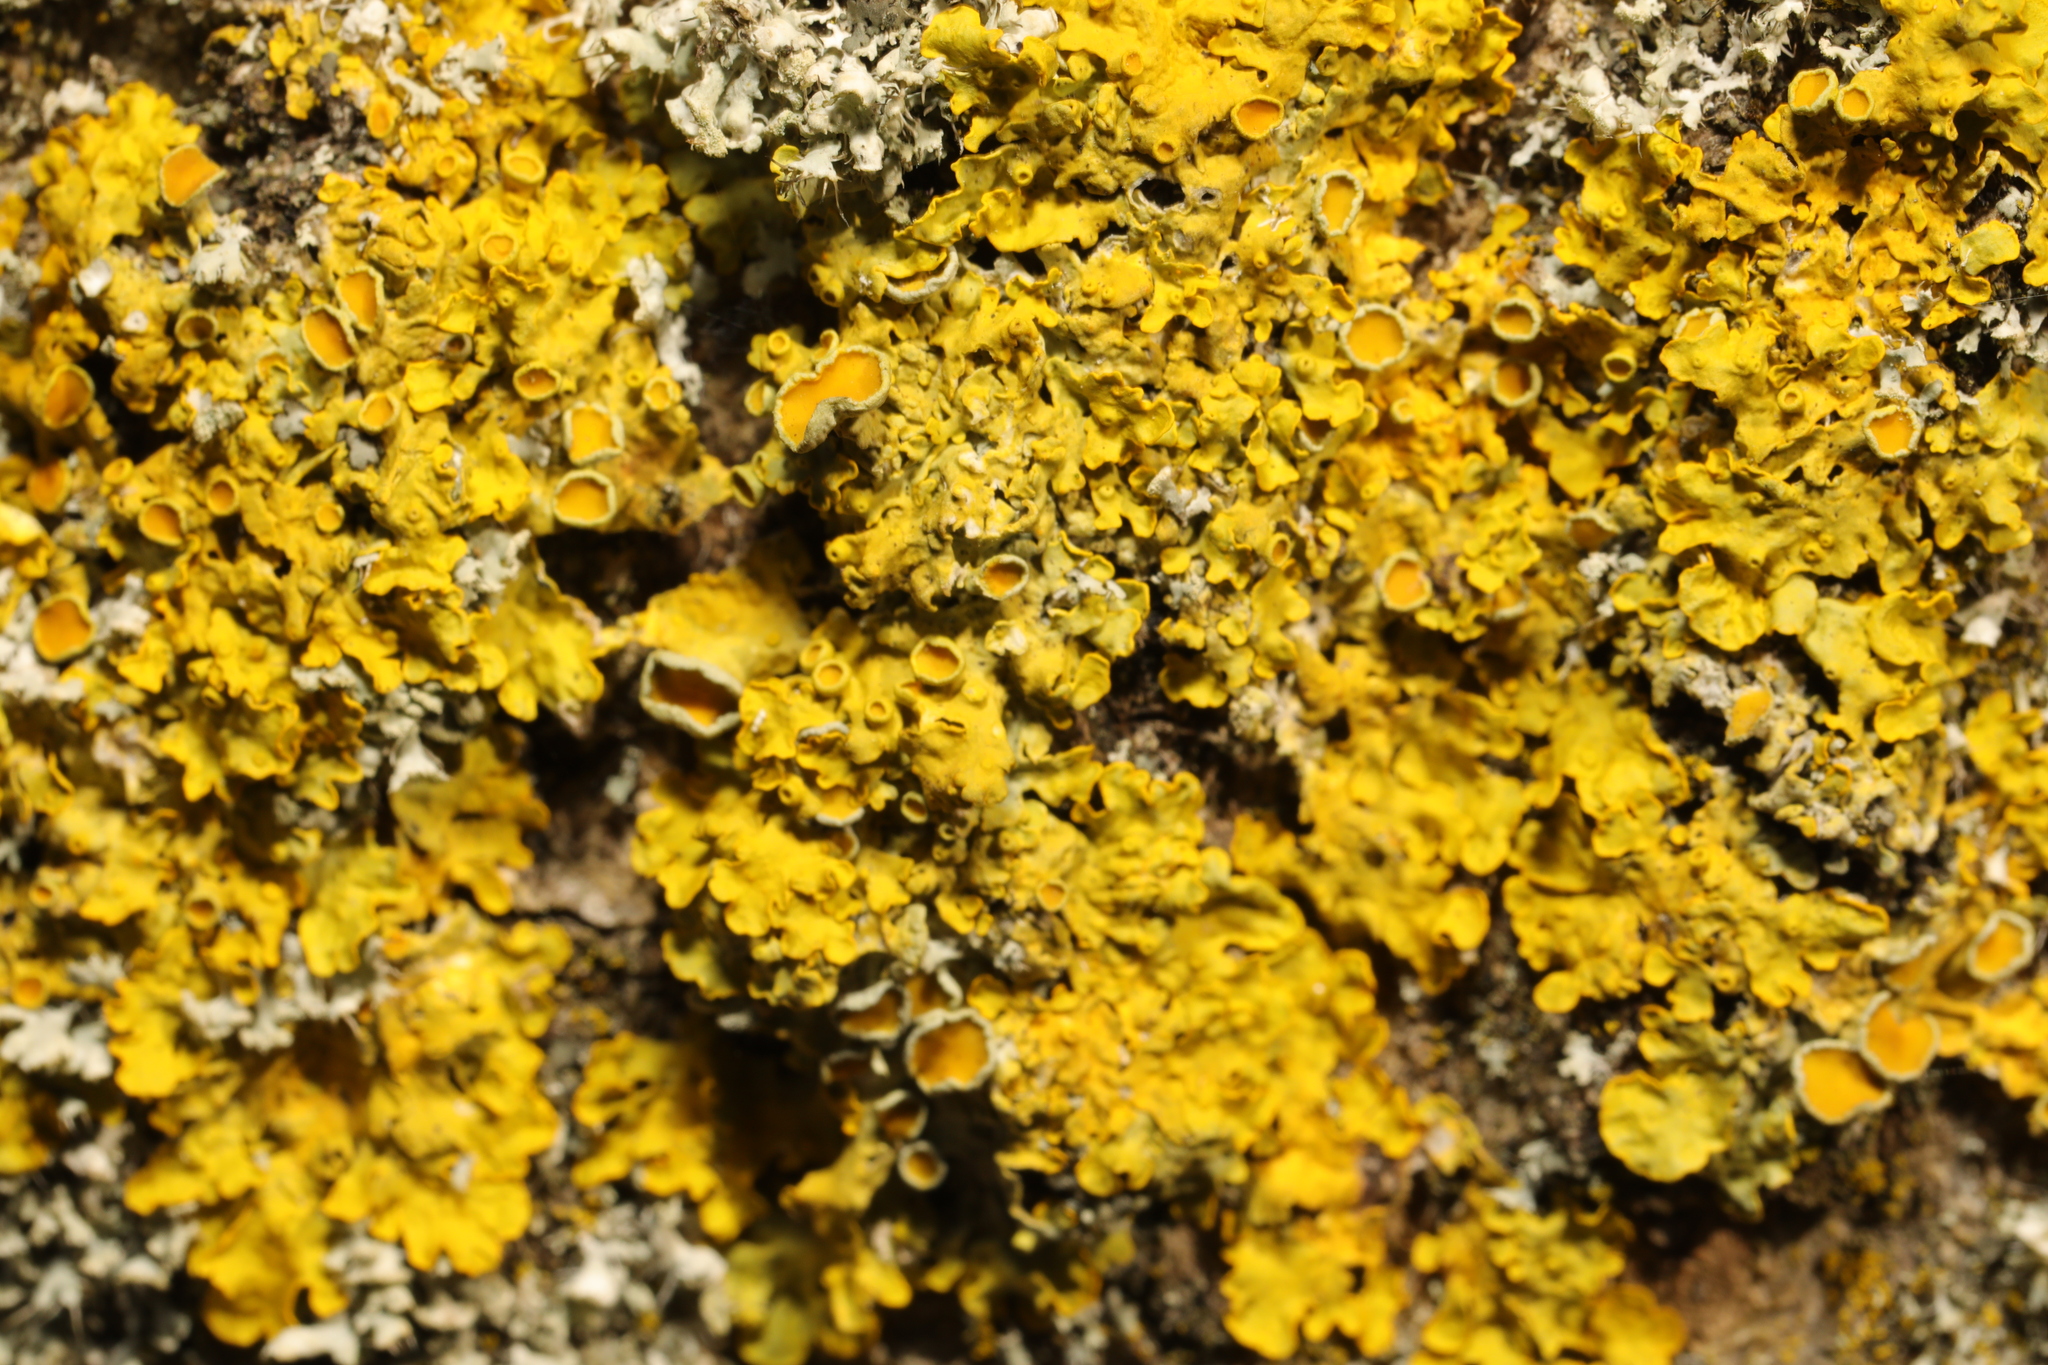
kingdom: Fungi
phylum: Ascomycota
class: Lecanoromycetes
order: Teloschistales
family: Teloschistaceae
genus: Xanthoria
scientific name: Xanthoria parietina
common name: Common orange lichen
